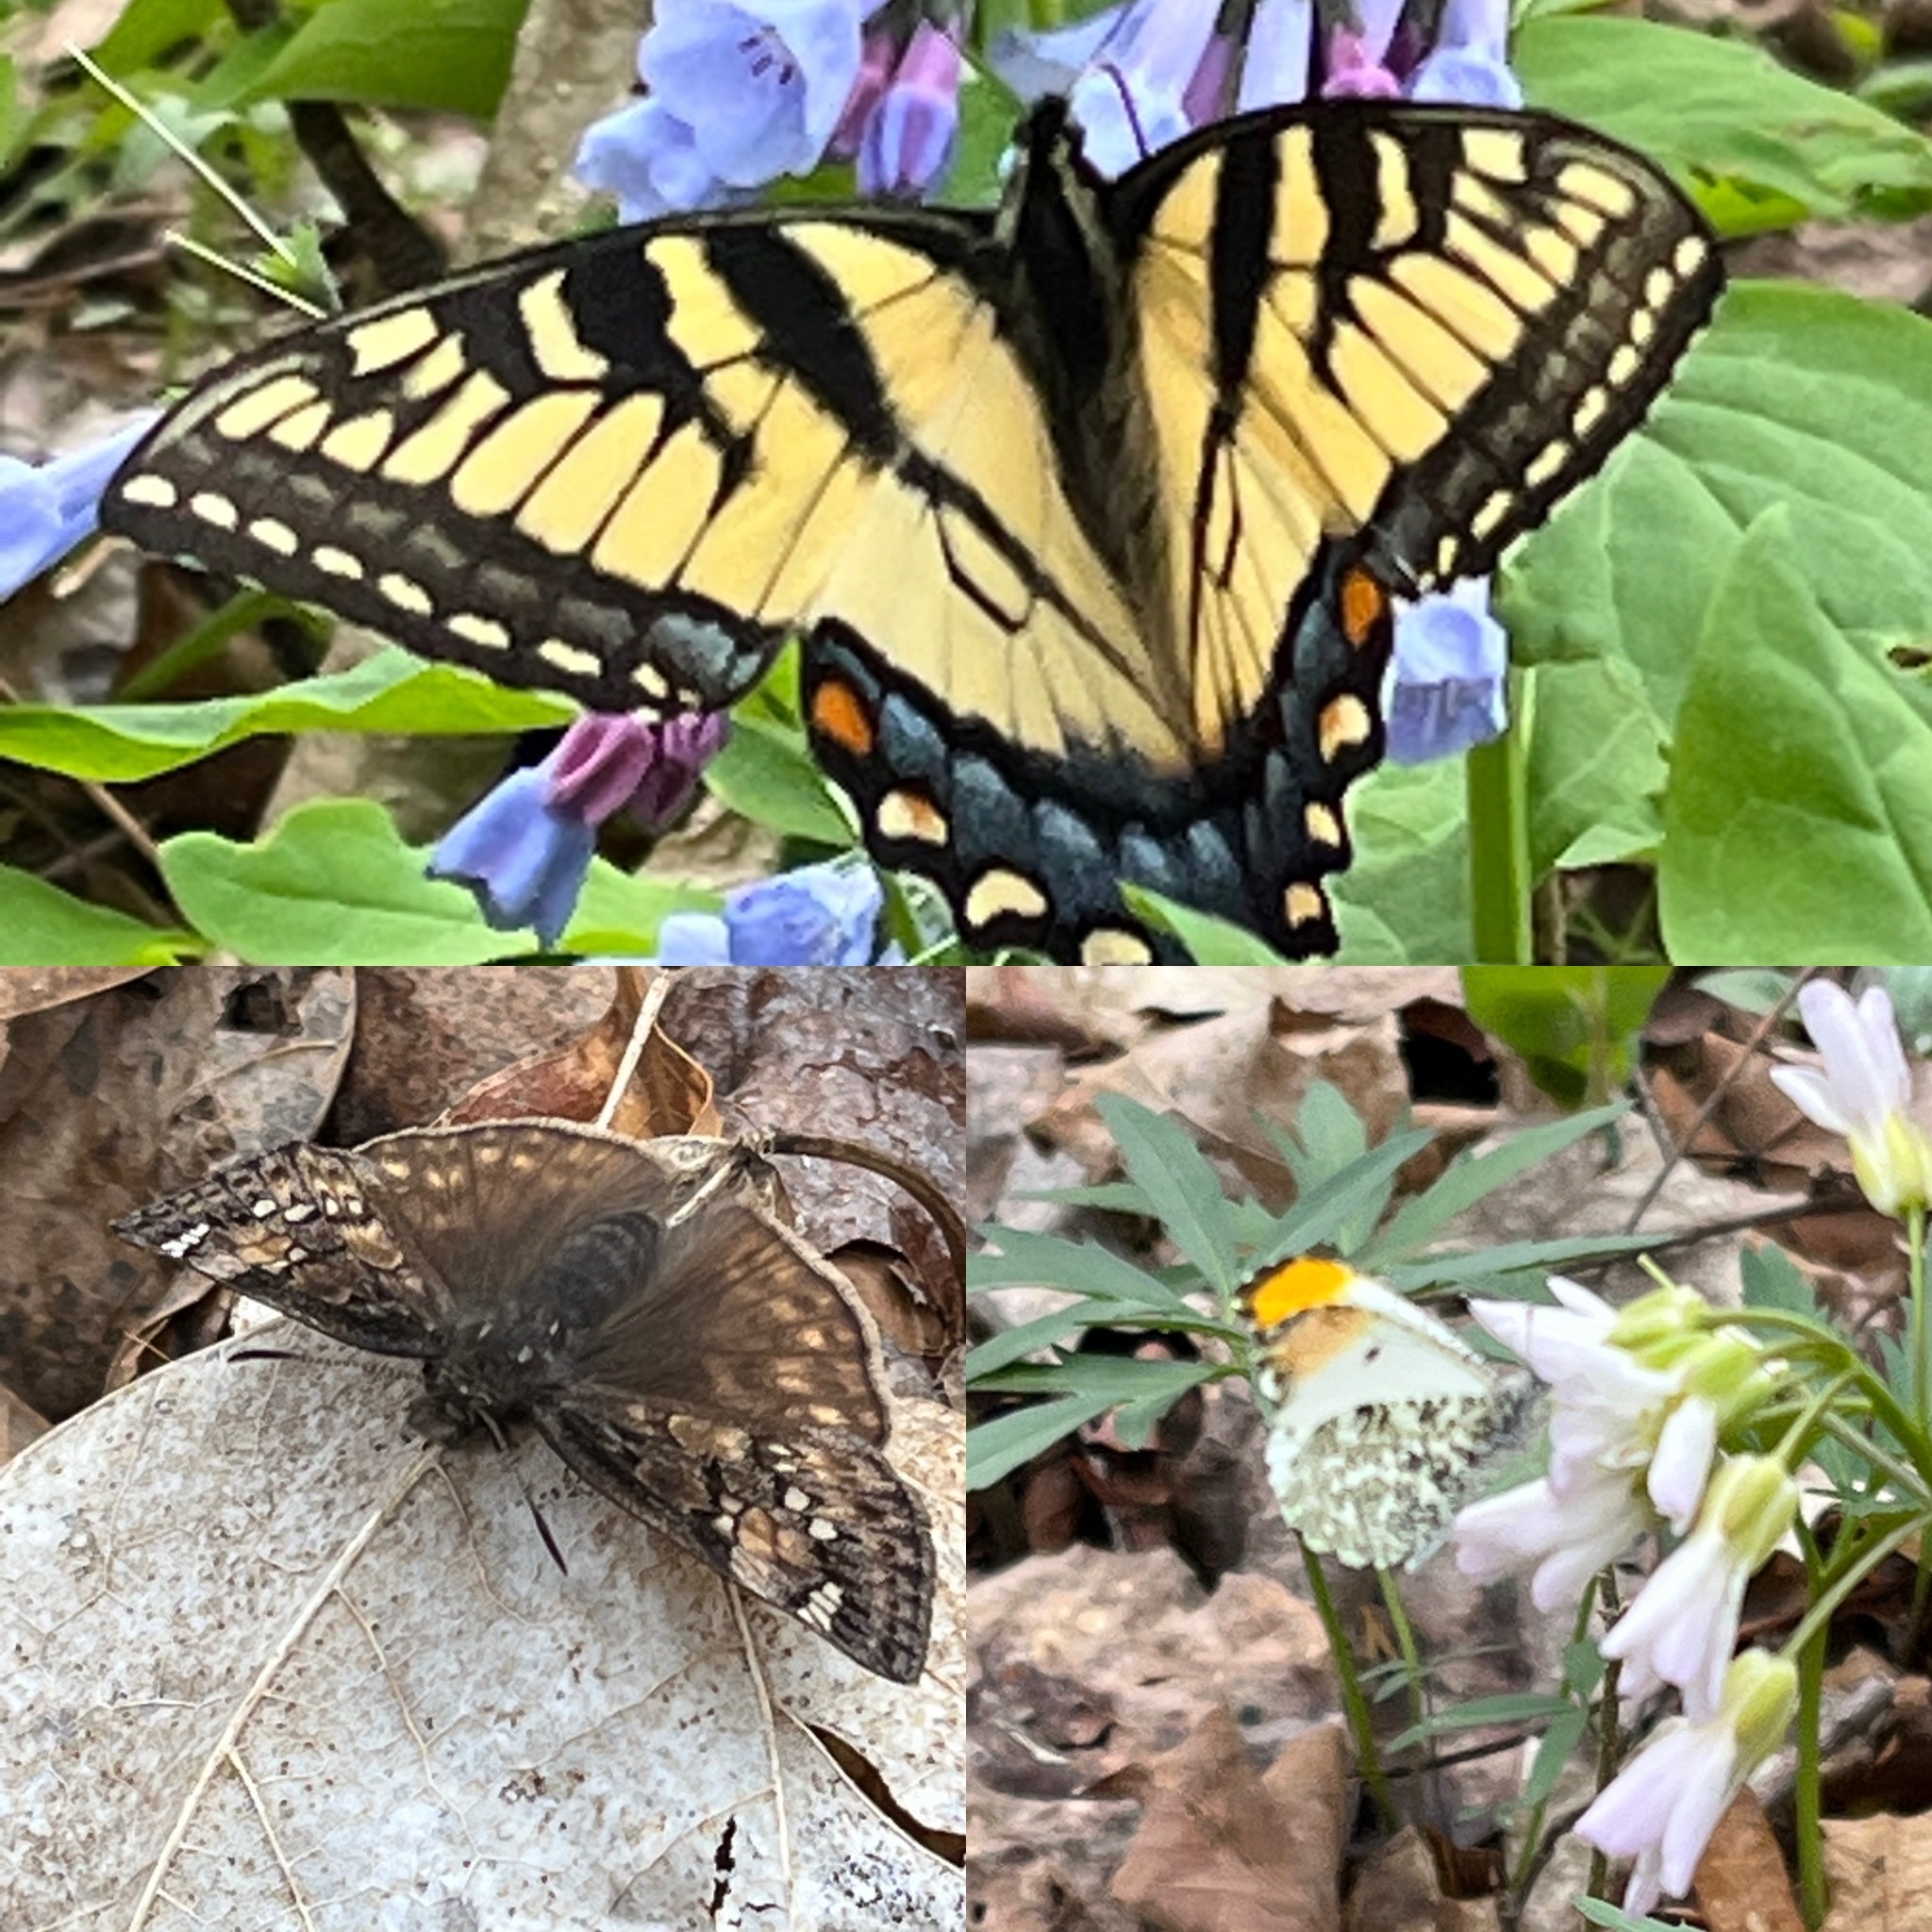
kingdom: Animalia
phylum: Arthropoda
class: Insecta
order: Lepidoptera
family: Papilionidae
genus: Papilio
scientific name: Papilio glaucus
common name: Tiger swallowtail
